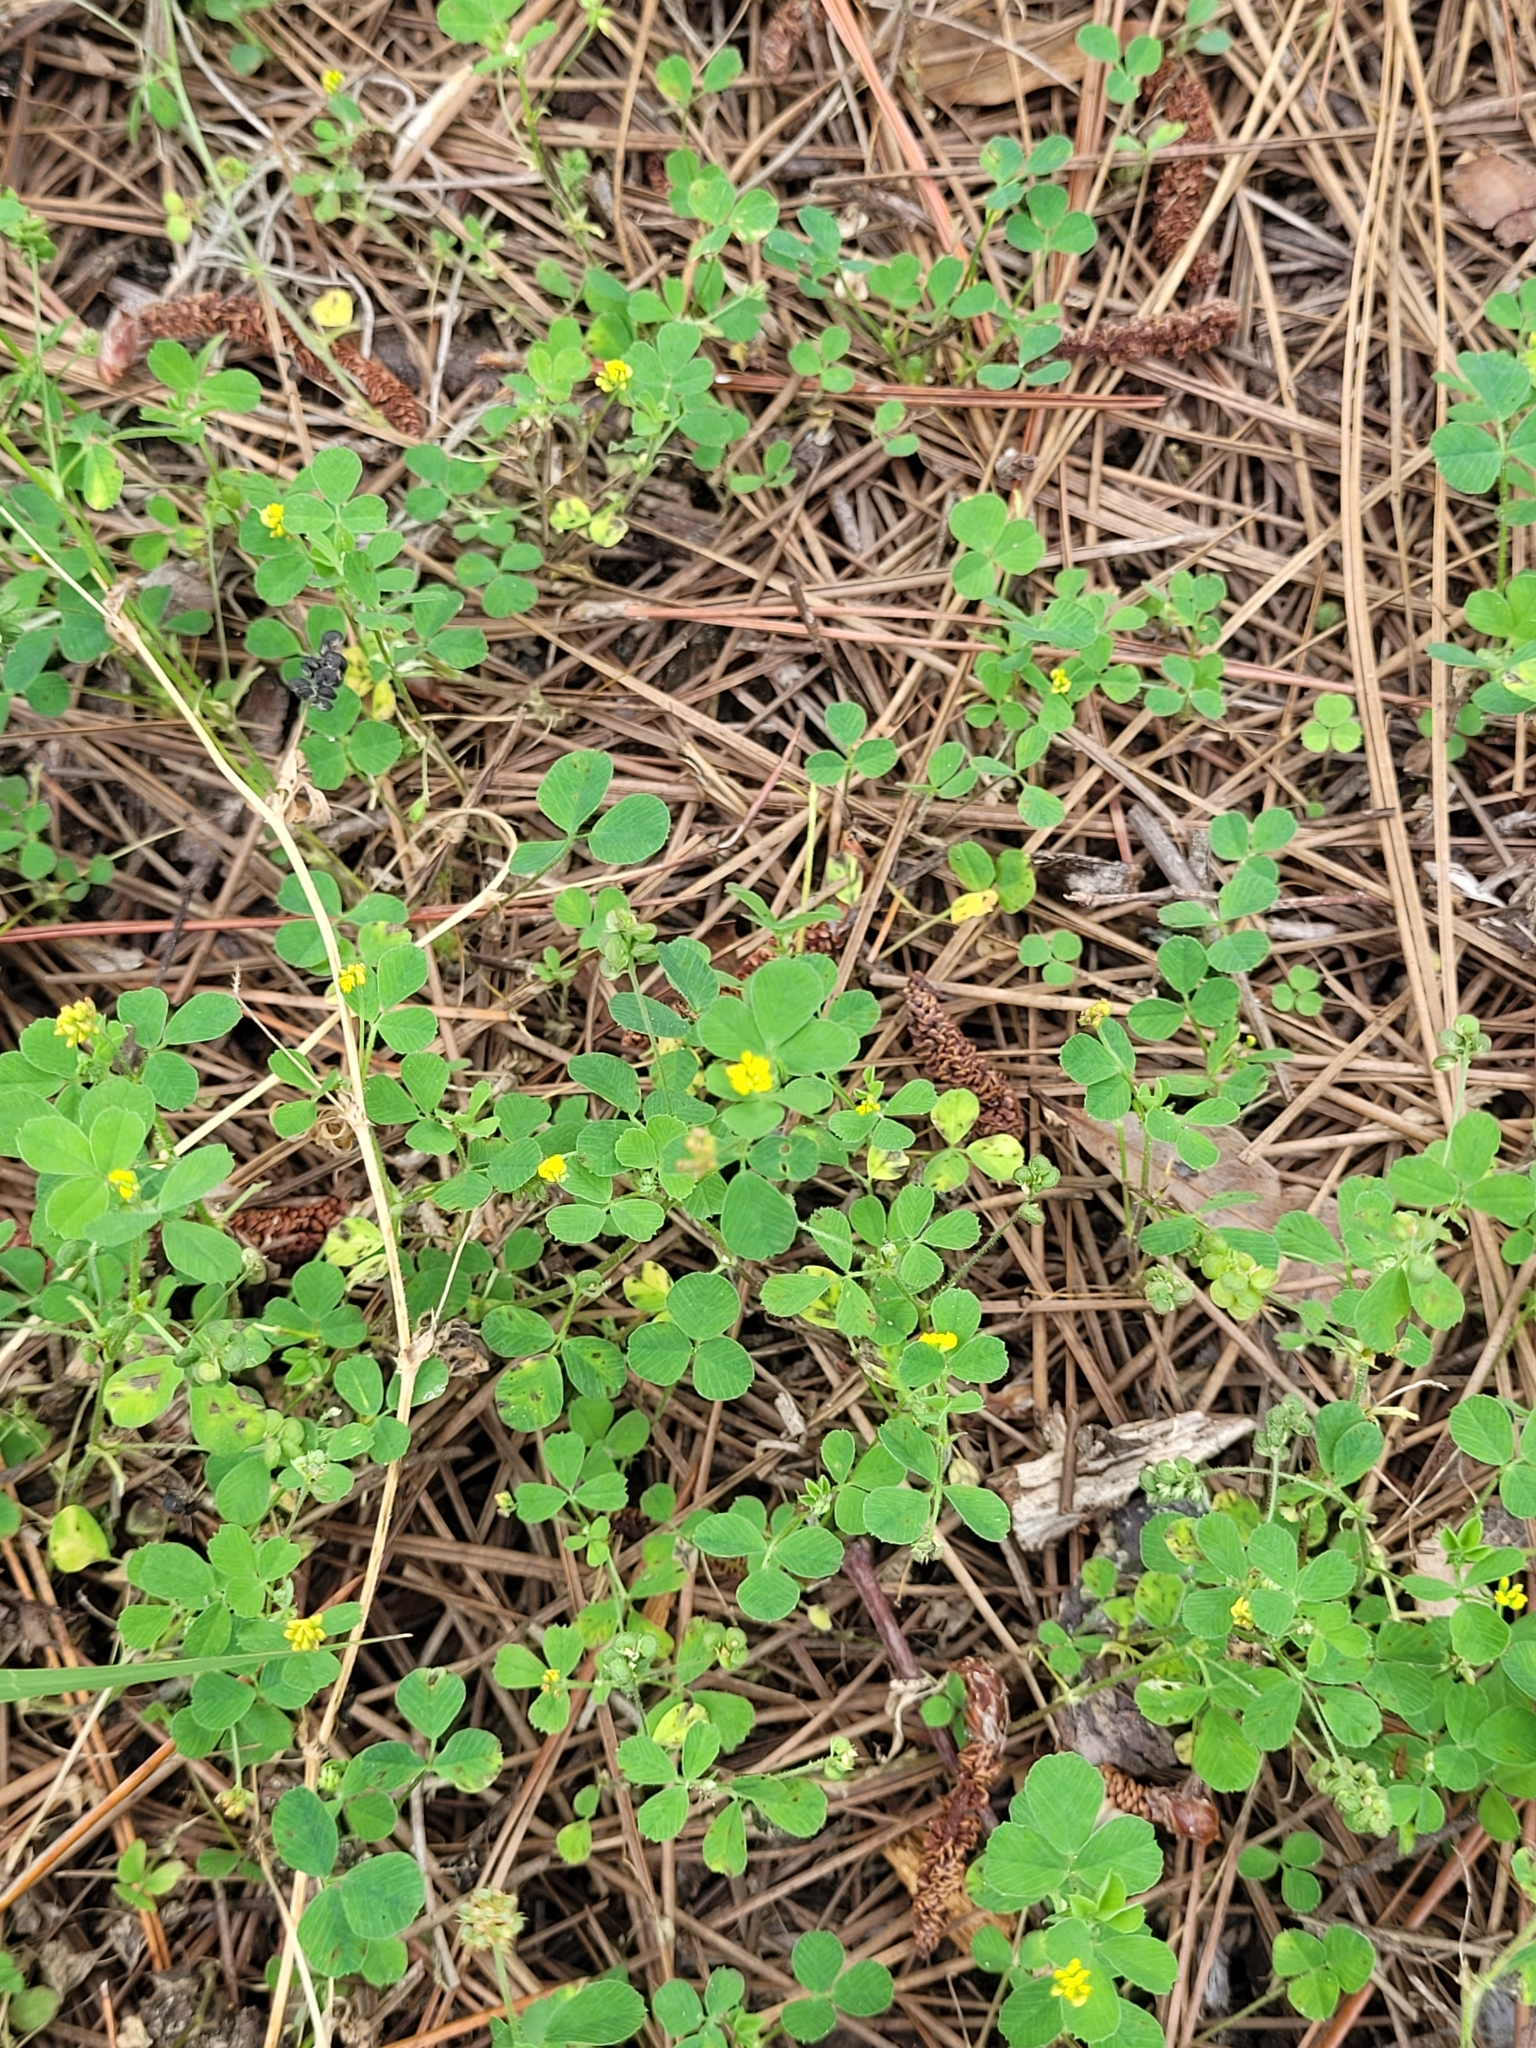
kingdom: Plantae
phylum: Tracheophyta
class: Magnoliopsida
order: Fabales
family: Fabaceae
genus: Medicago
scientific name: Medicago lupulina
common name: Black medick
